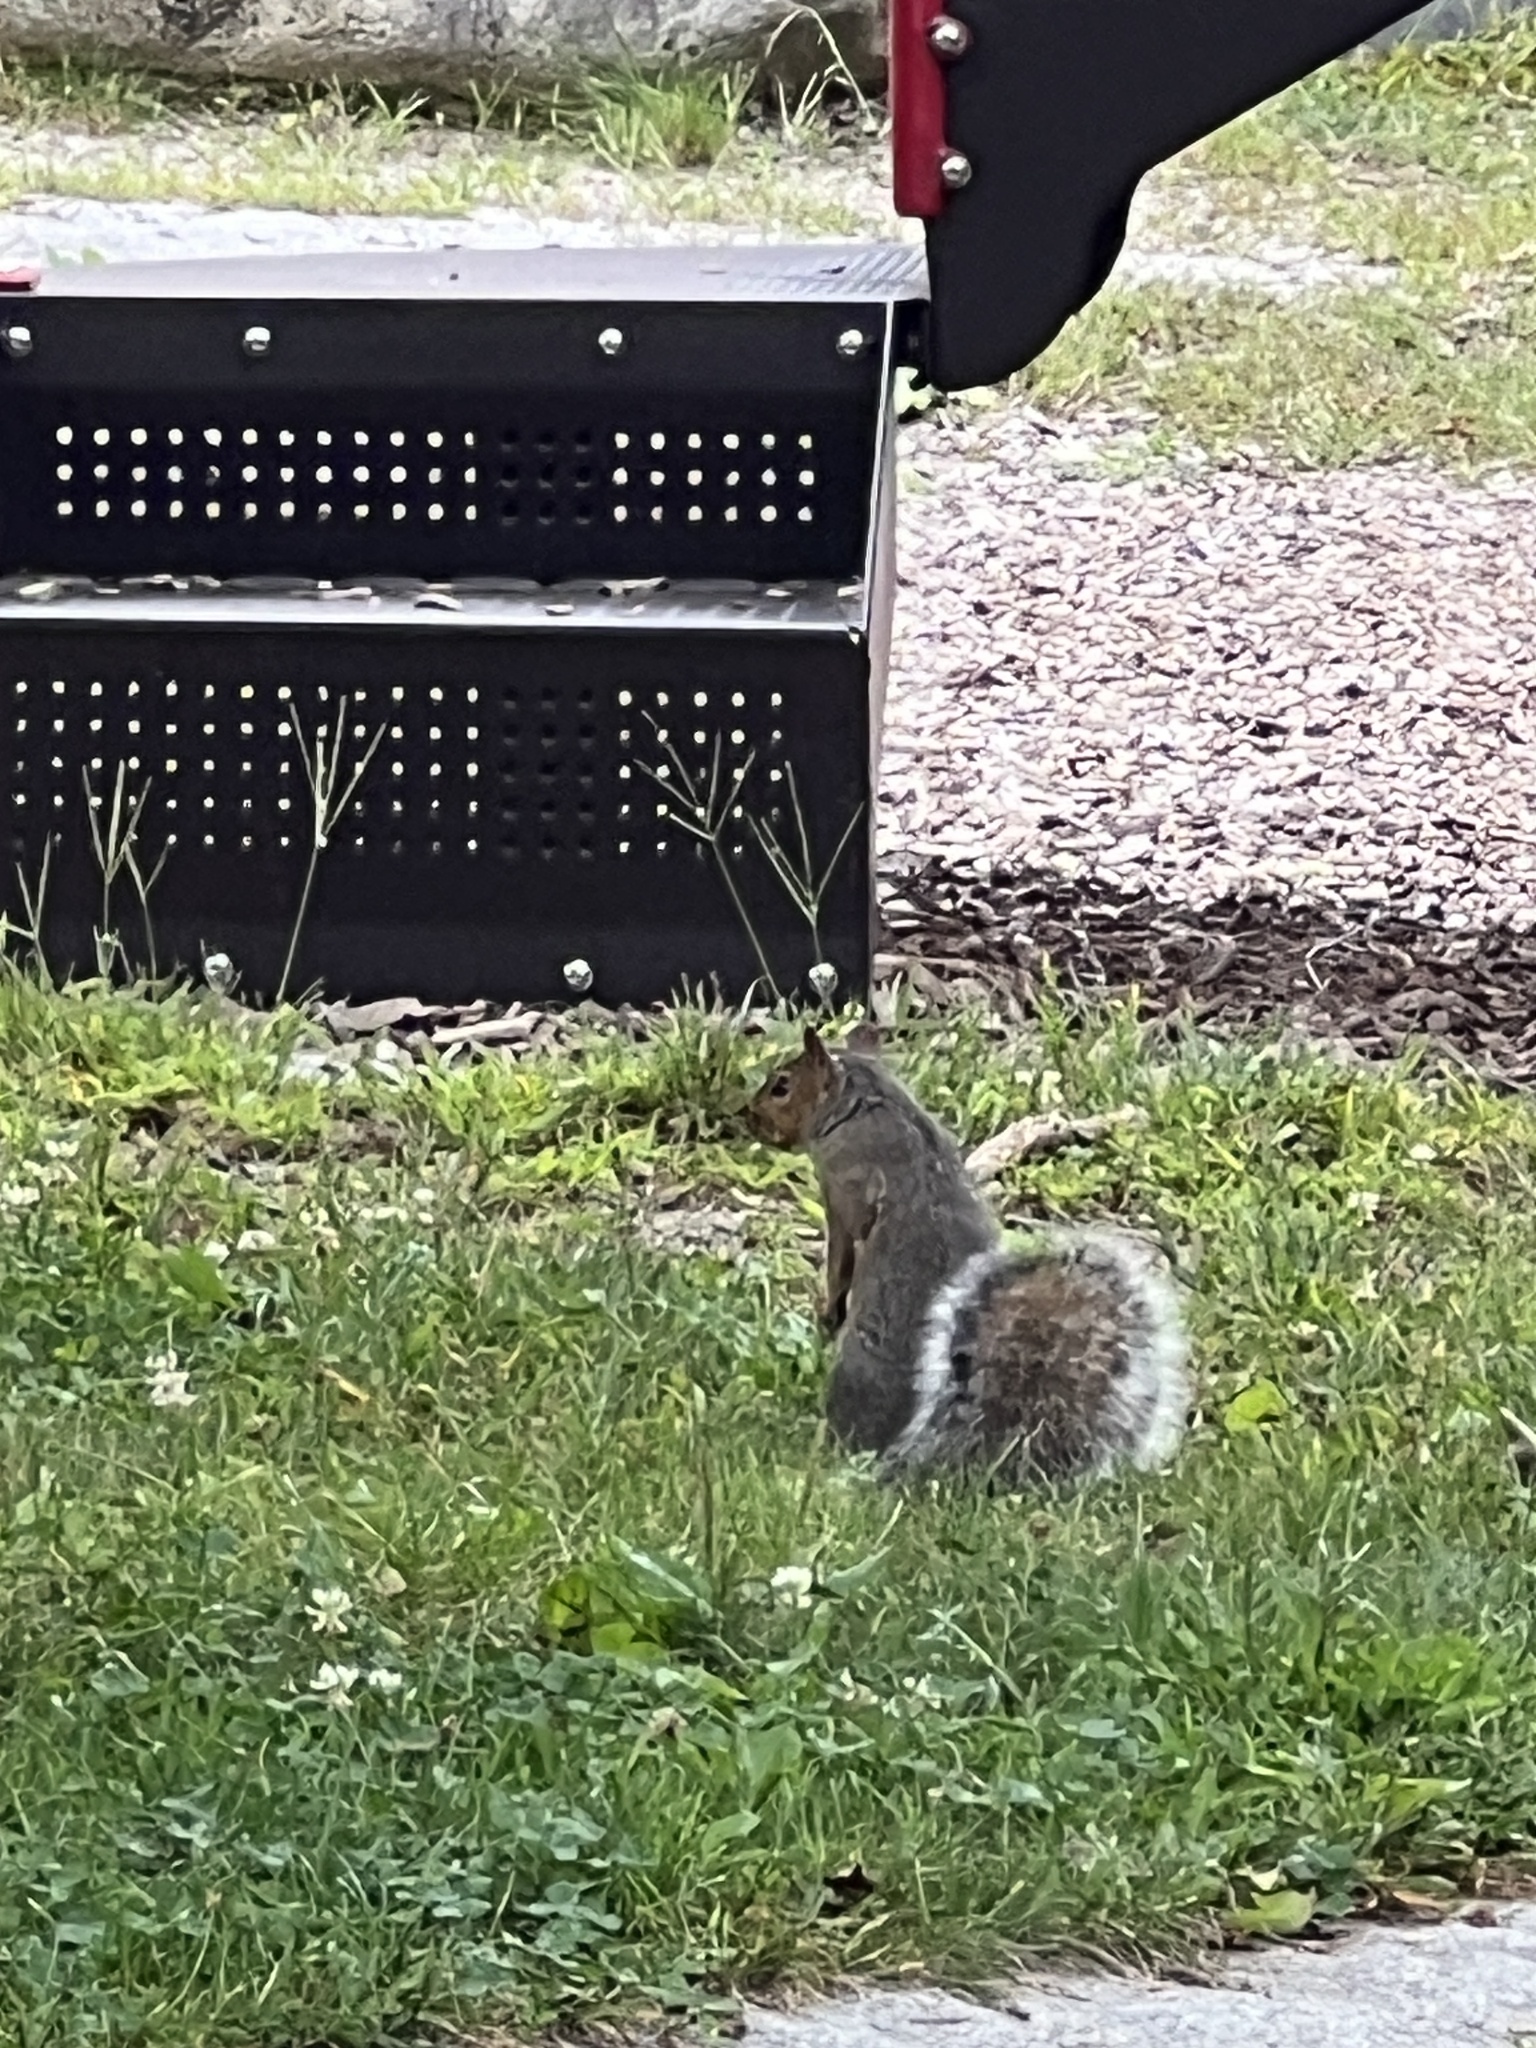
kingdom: Animalia
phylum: Chordata
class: Mammalia
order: Rodentia
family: Sciuridae
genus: Sciurus
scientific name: Sciurus carolinensis
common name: Eastern gray squirrel
